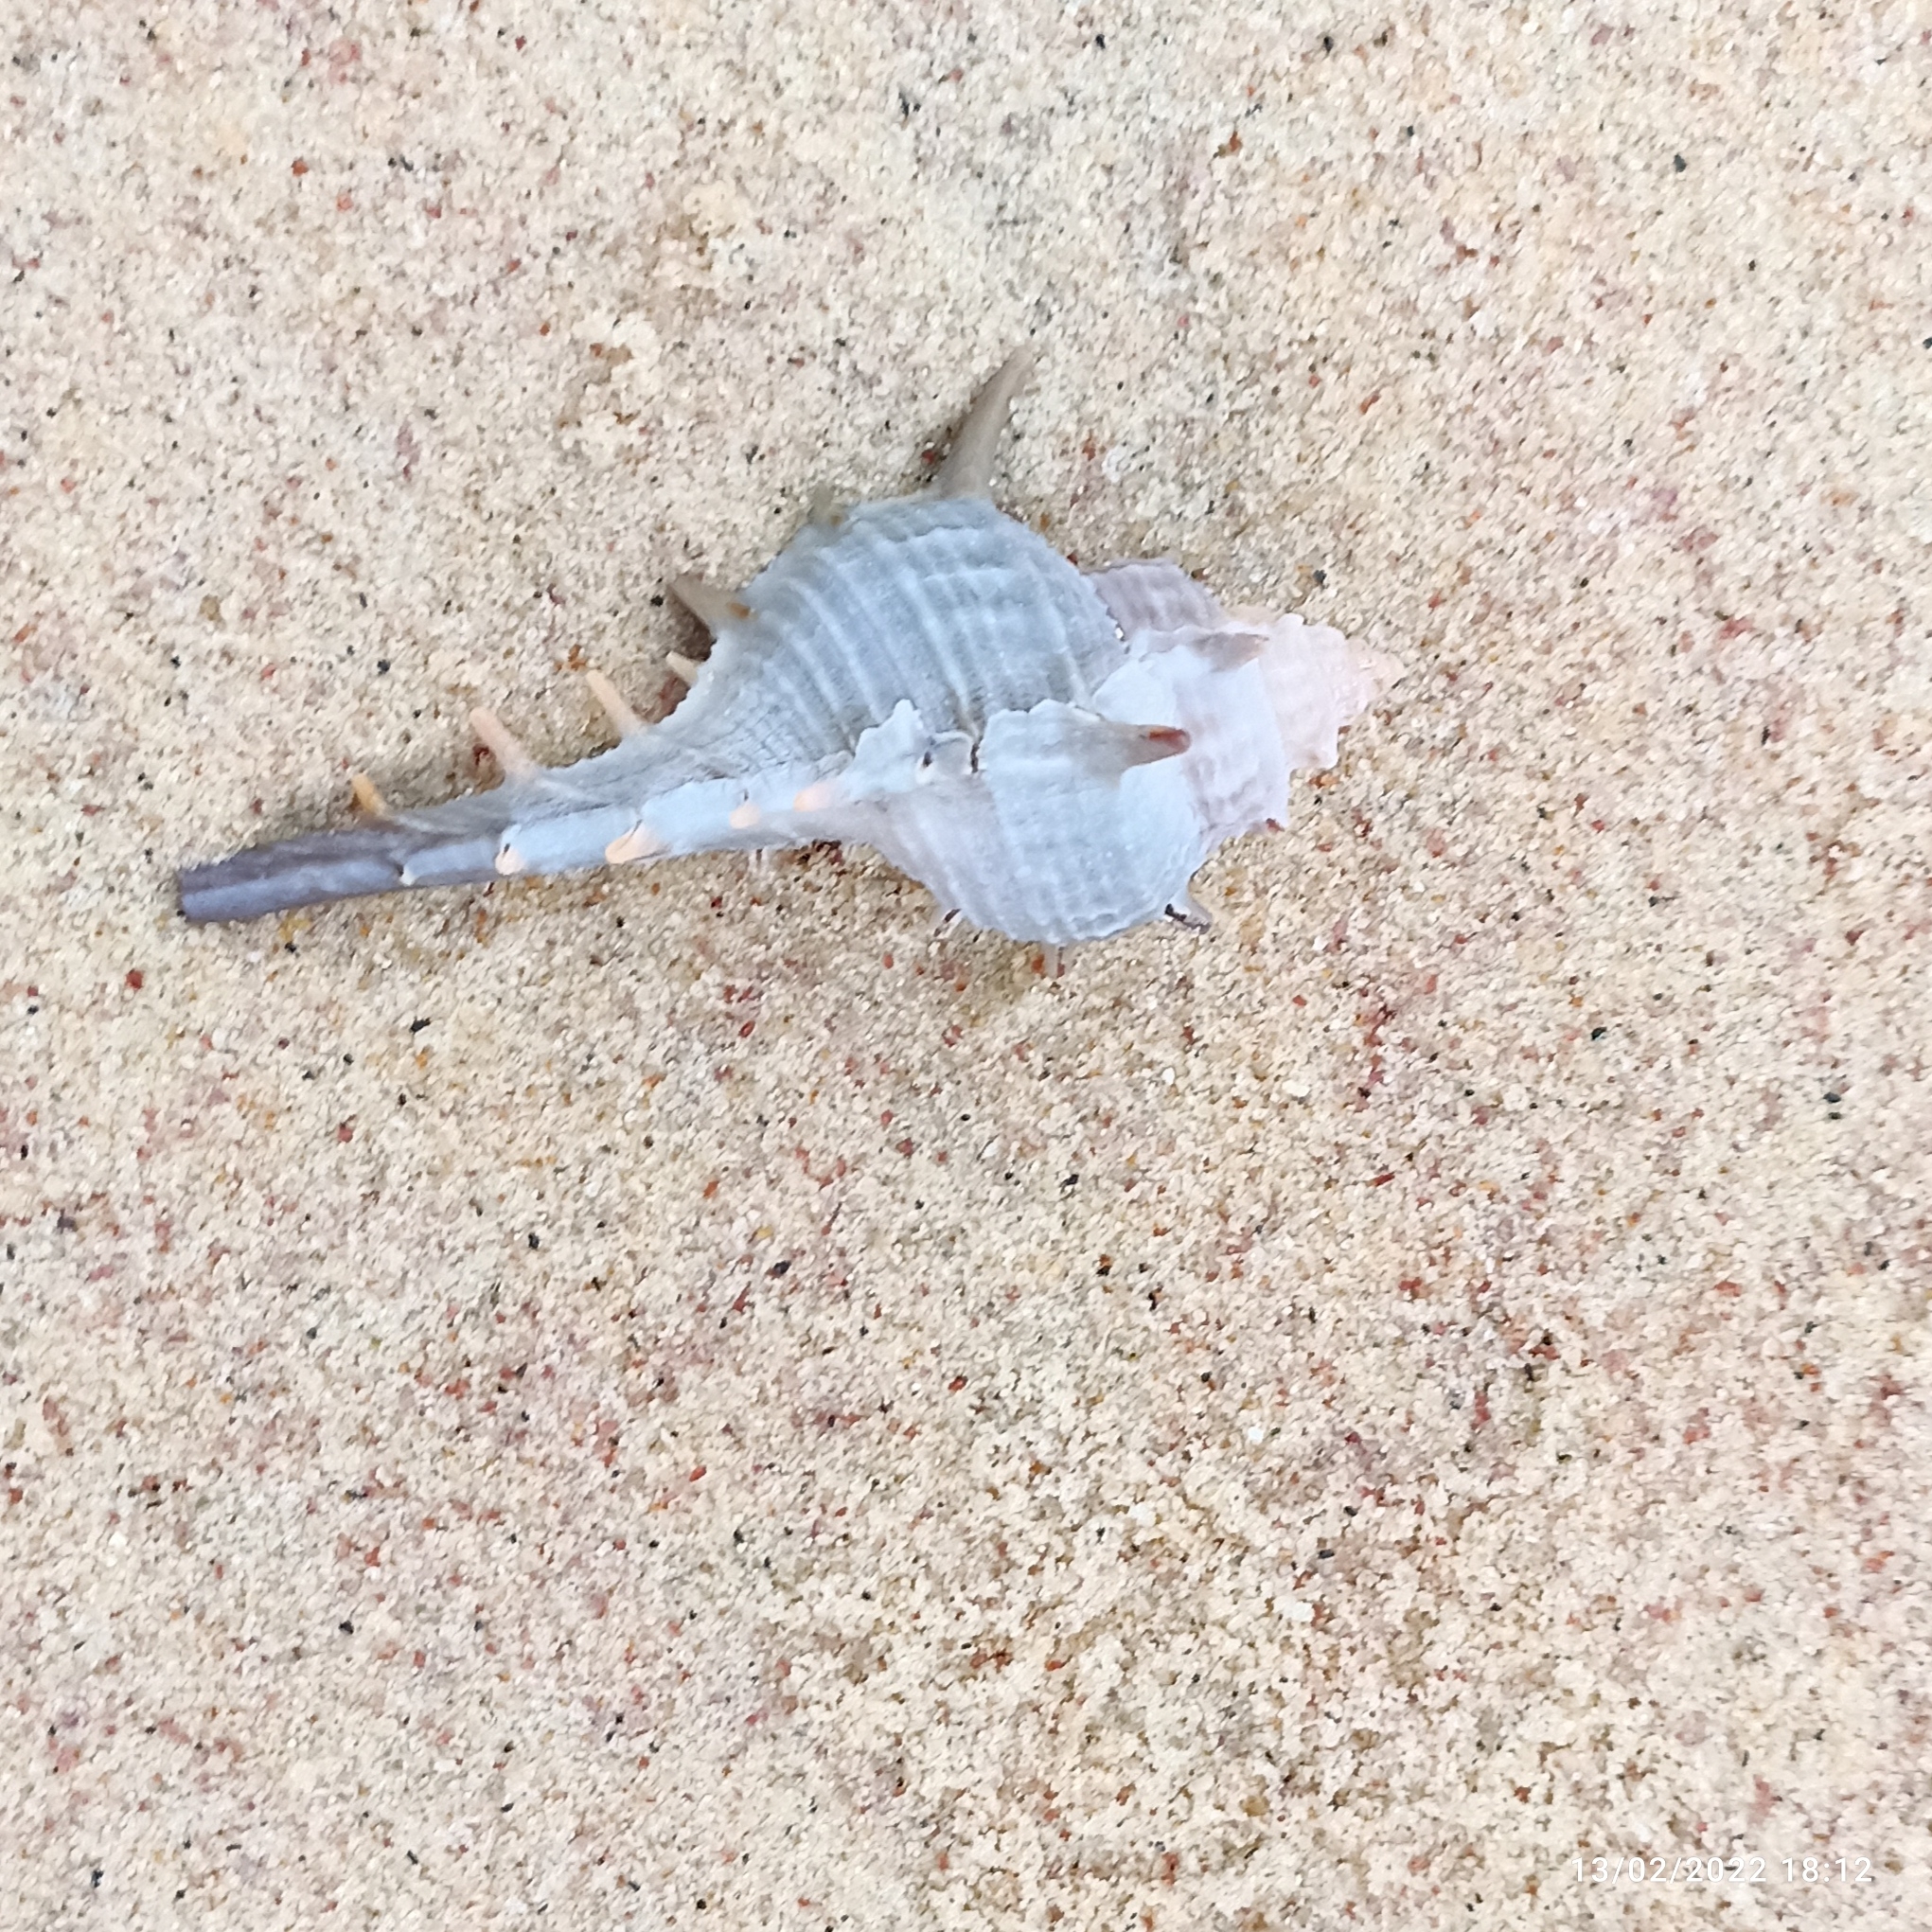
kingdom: Animalia
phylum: Mollusca
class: Gastropoda
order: Neogastropoda
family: Muricidae
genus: Murex
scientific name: Murex trapa
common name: Rare spined murex
